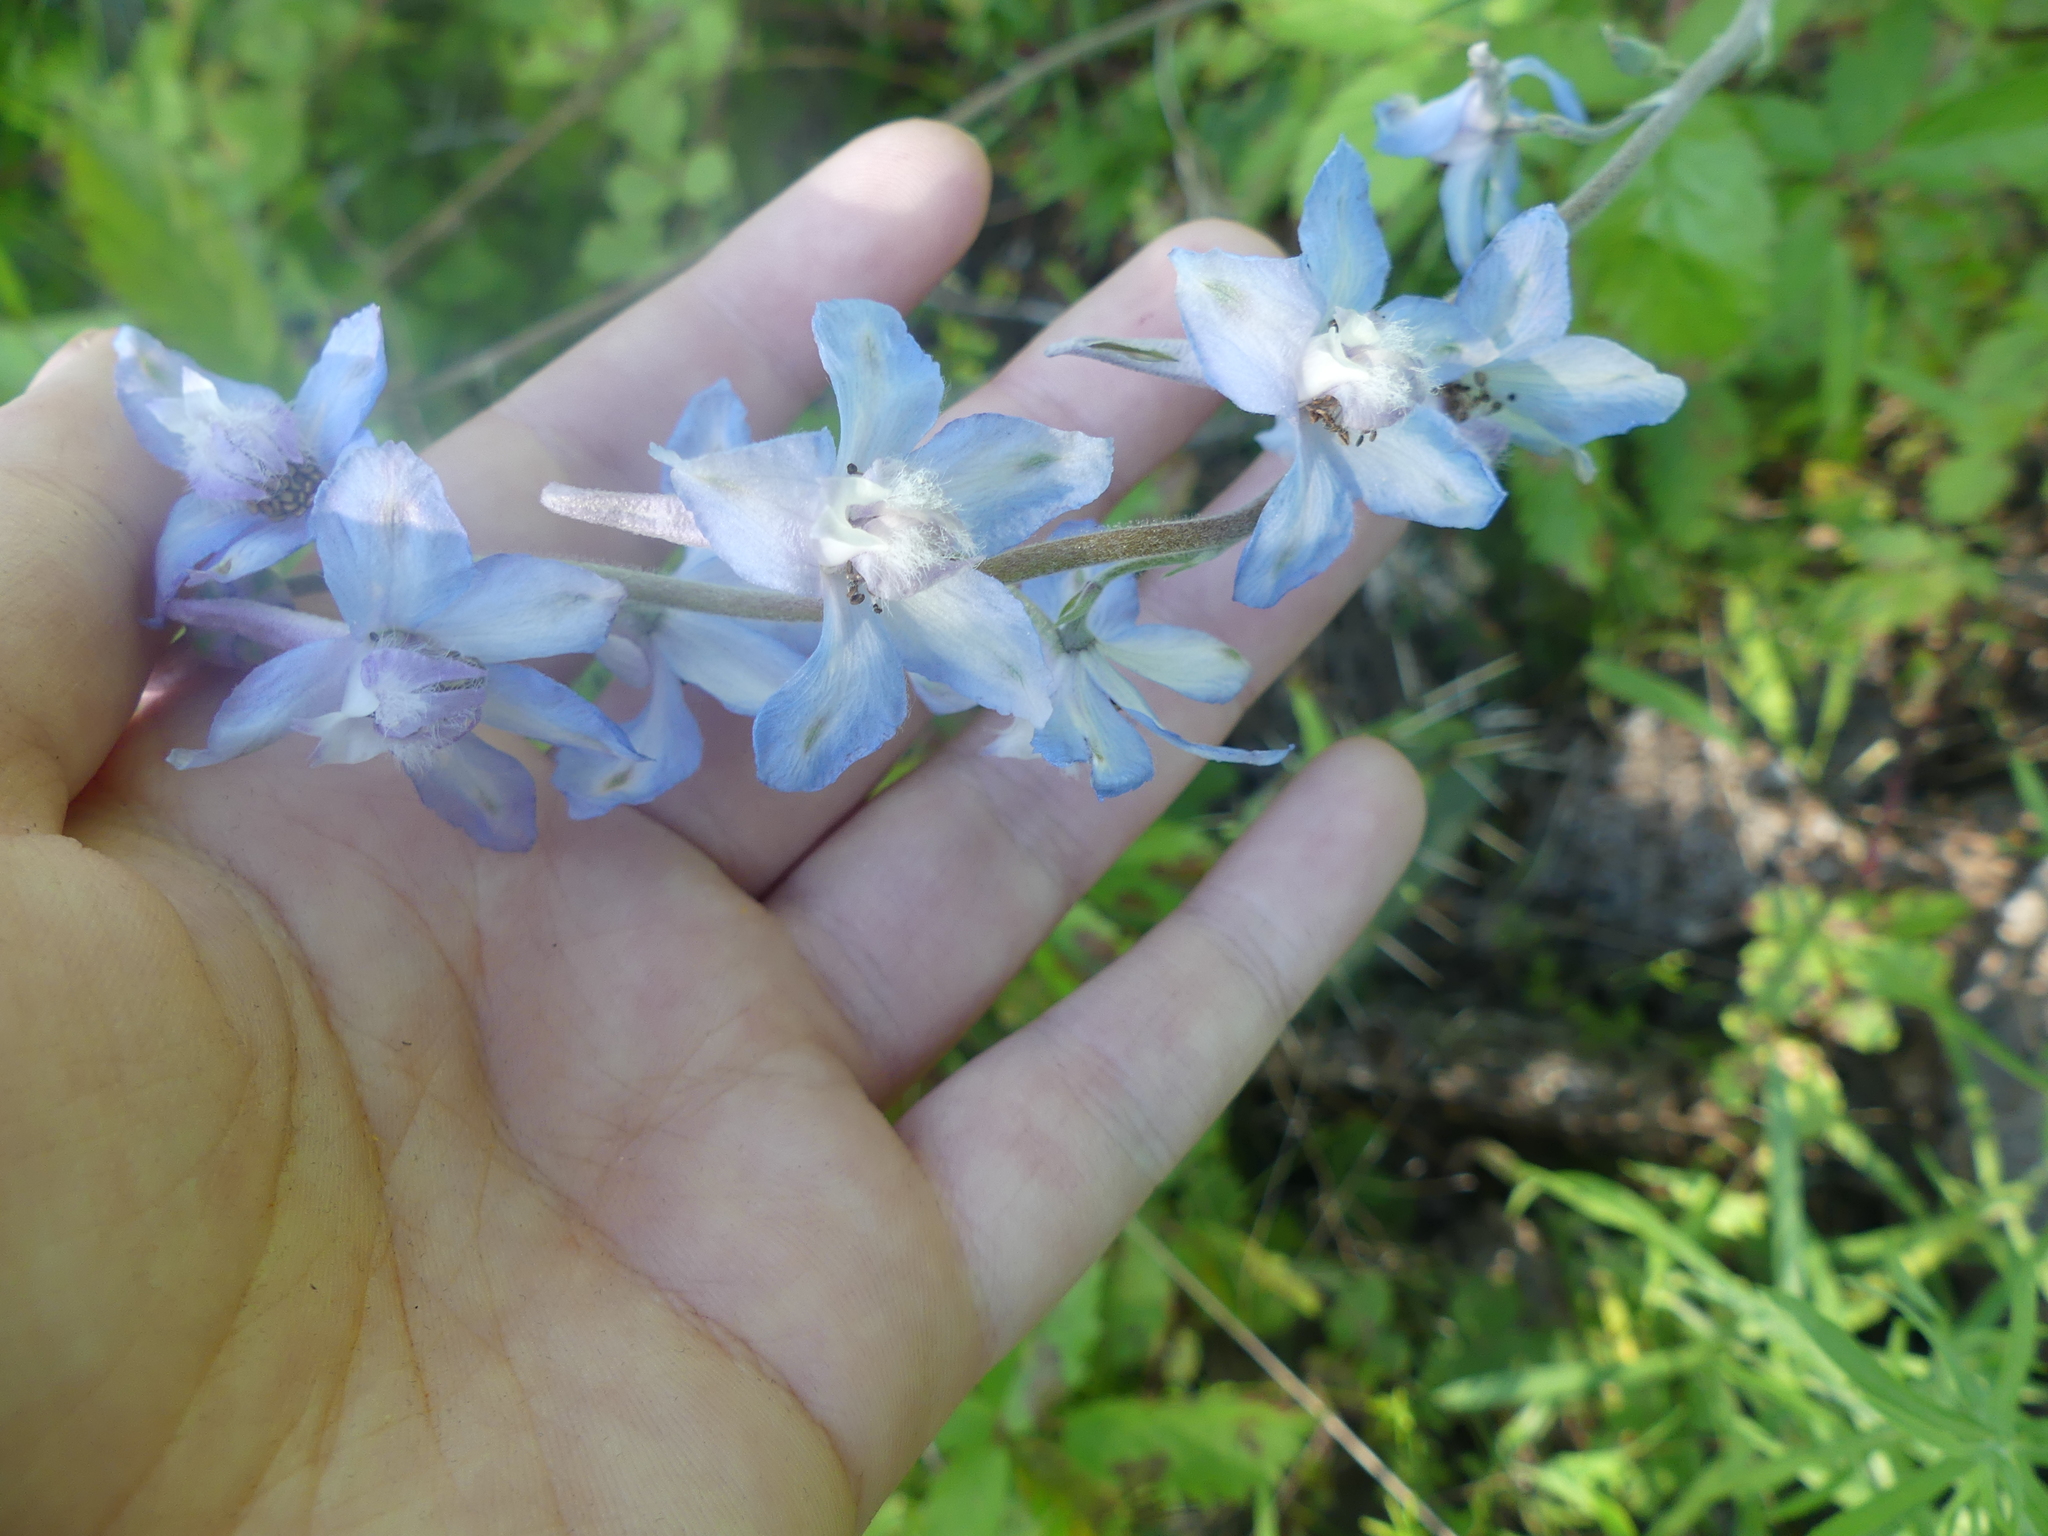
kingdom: Plantae
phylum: Tracheophyta
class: Magnoliopsida
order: Ranunculales
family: Ranunculaceae
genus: Delphinium
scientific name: Delphinium carolinianum
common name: Carolina larkspur
